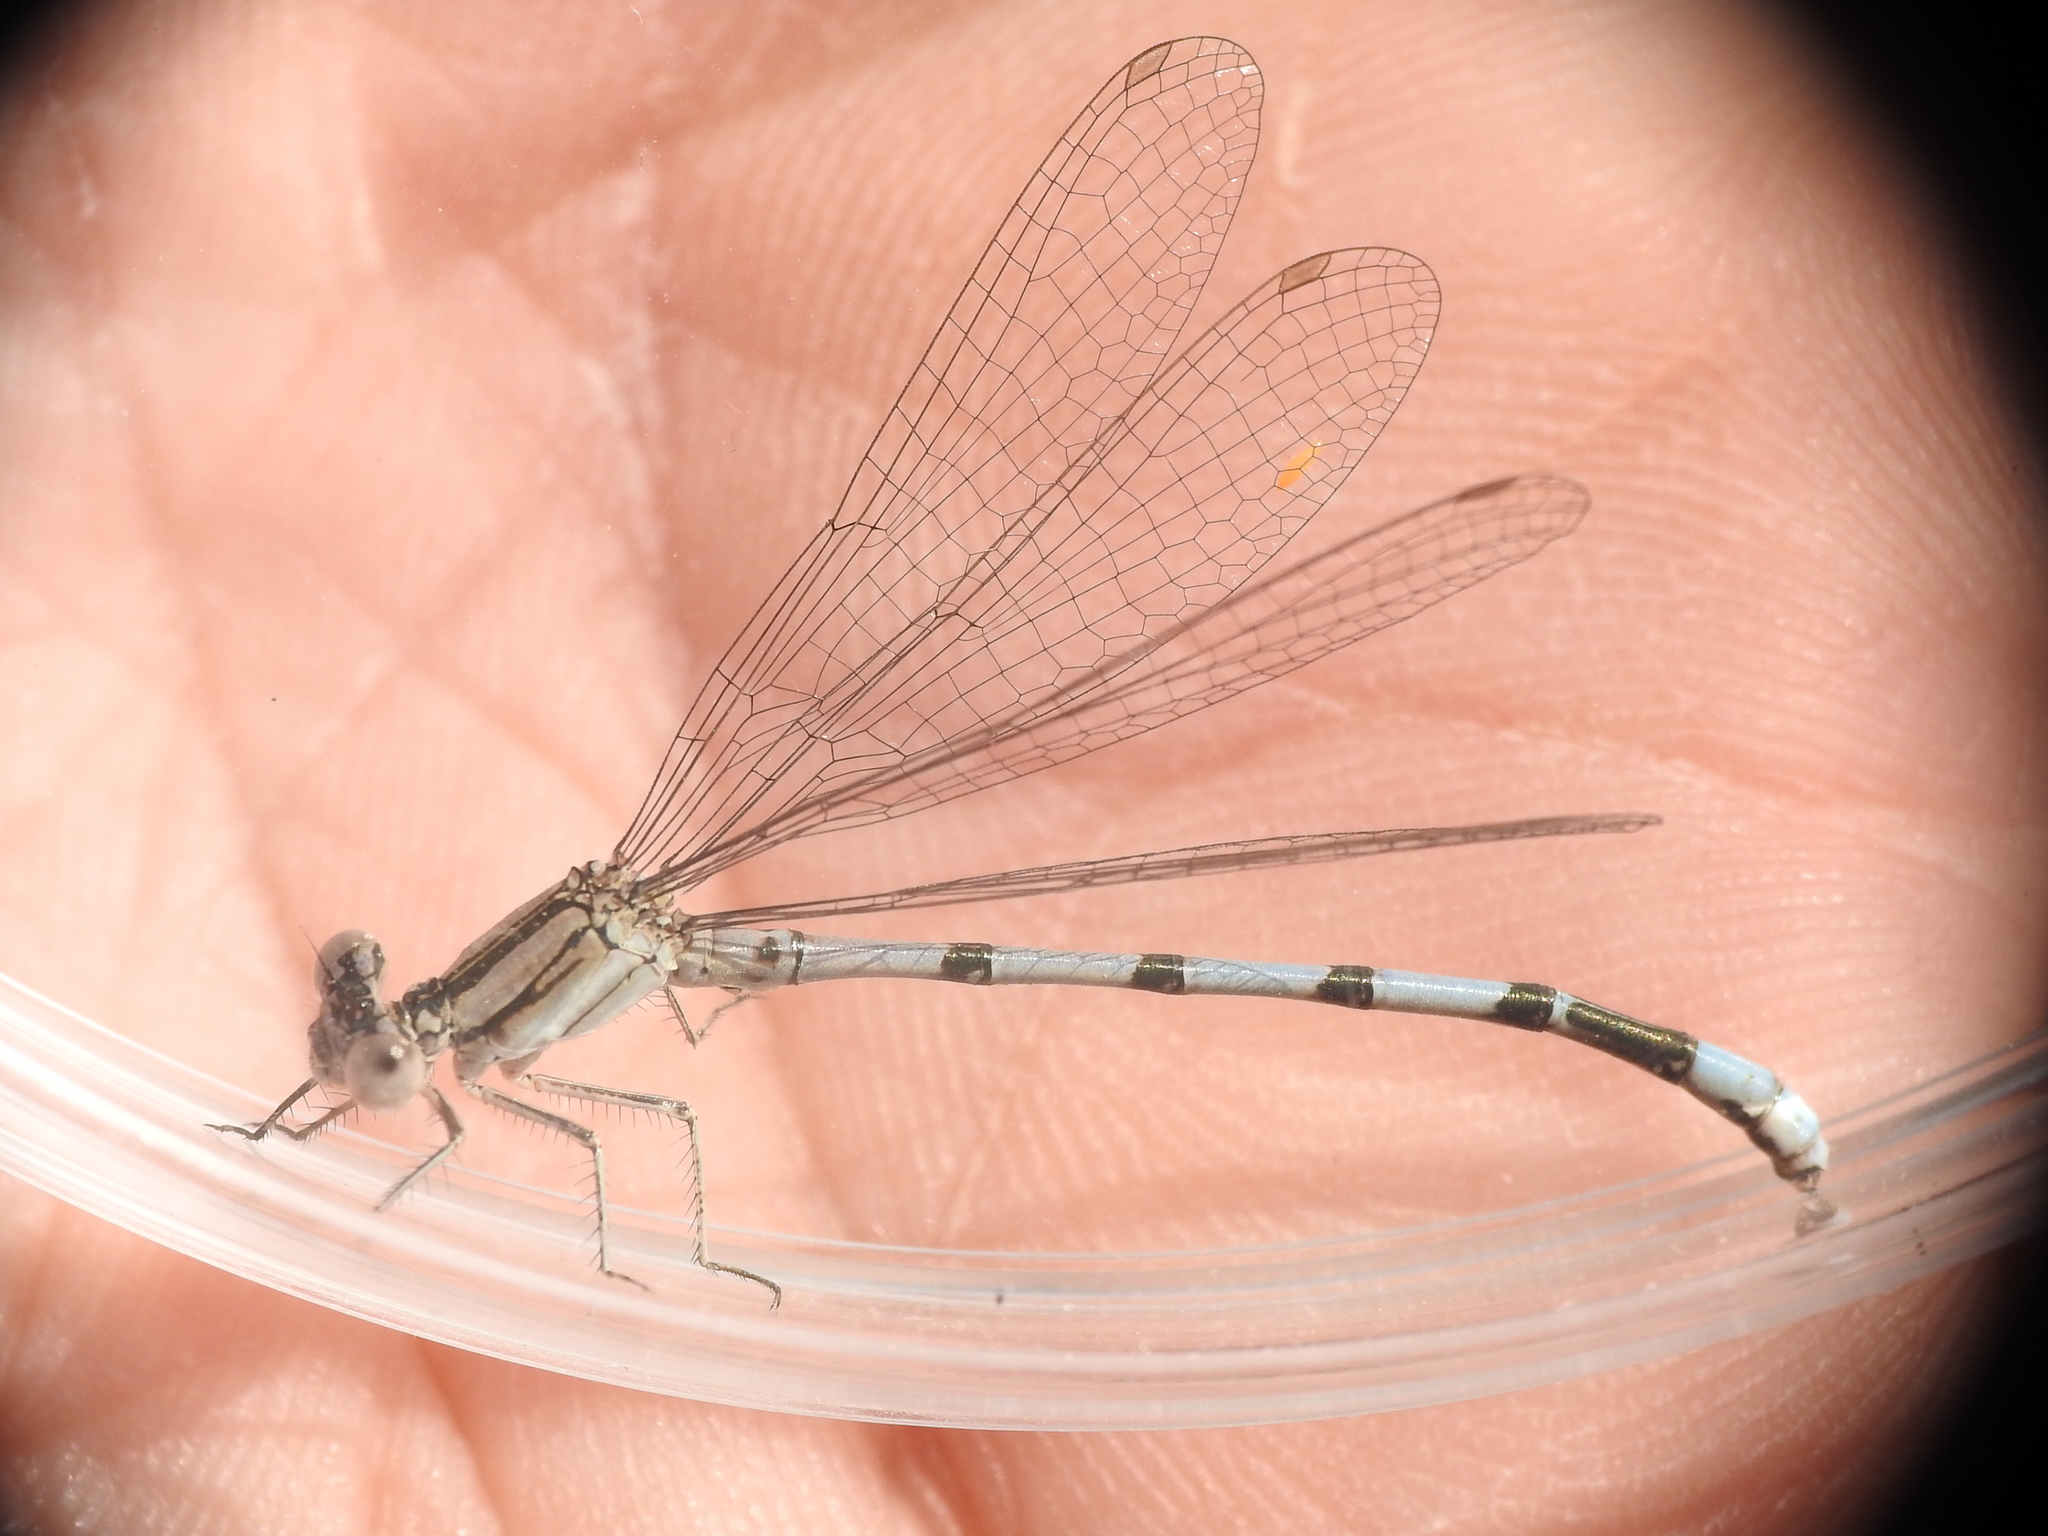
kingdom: Animalia
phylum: Arthropoda
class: Insecta
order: Odonata
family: Coenagrionidae
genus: Argia
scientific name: Argia nahuana
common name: Aztec dancer
